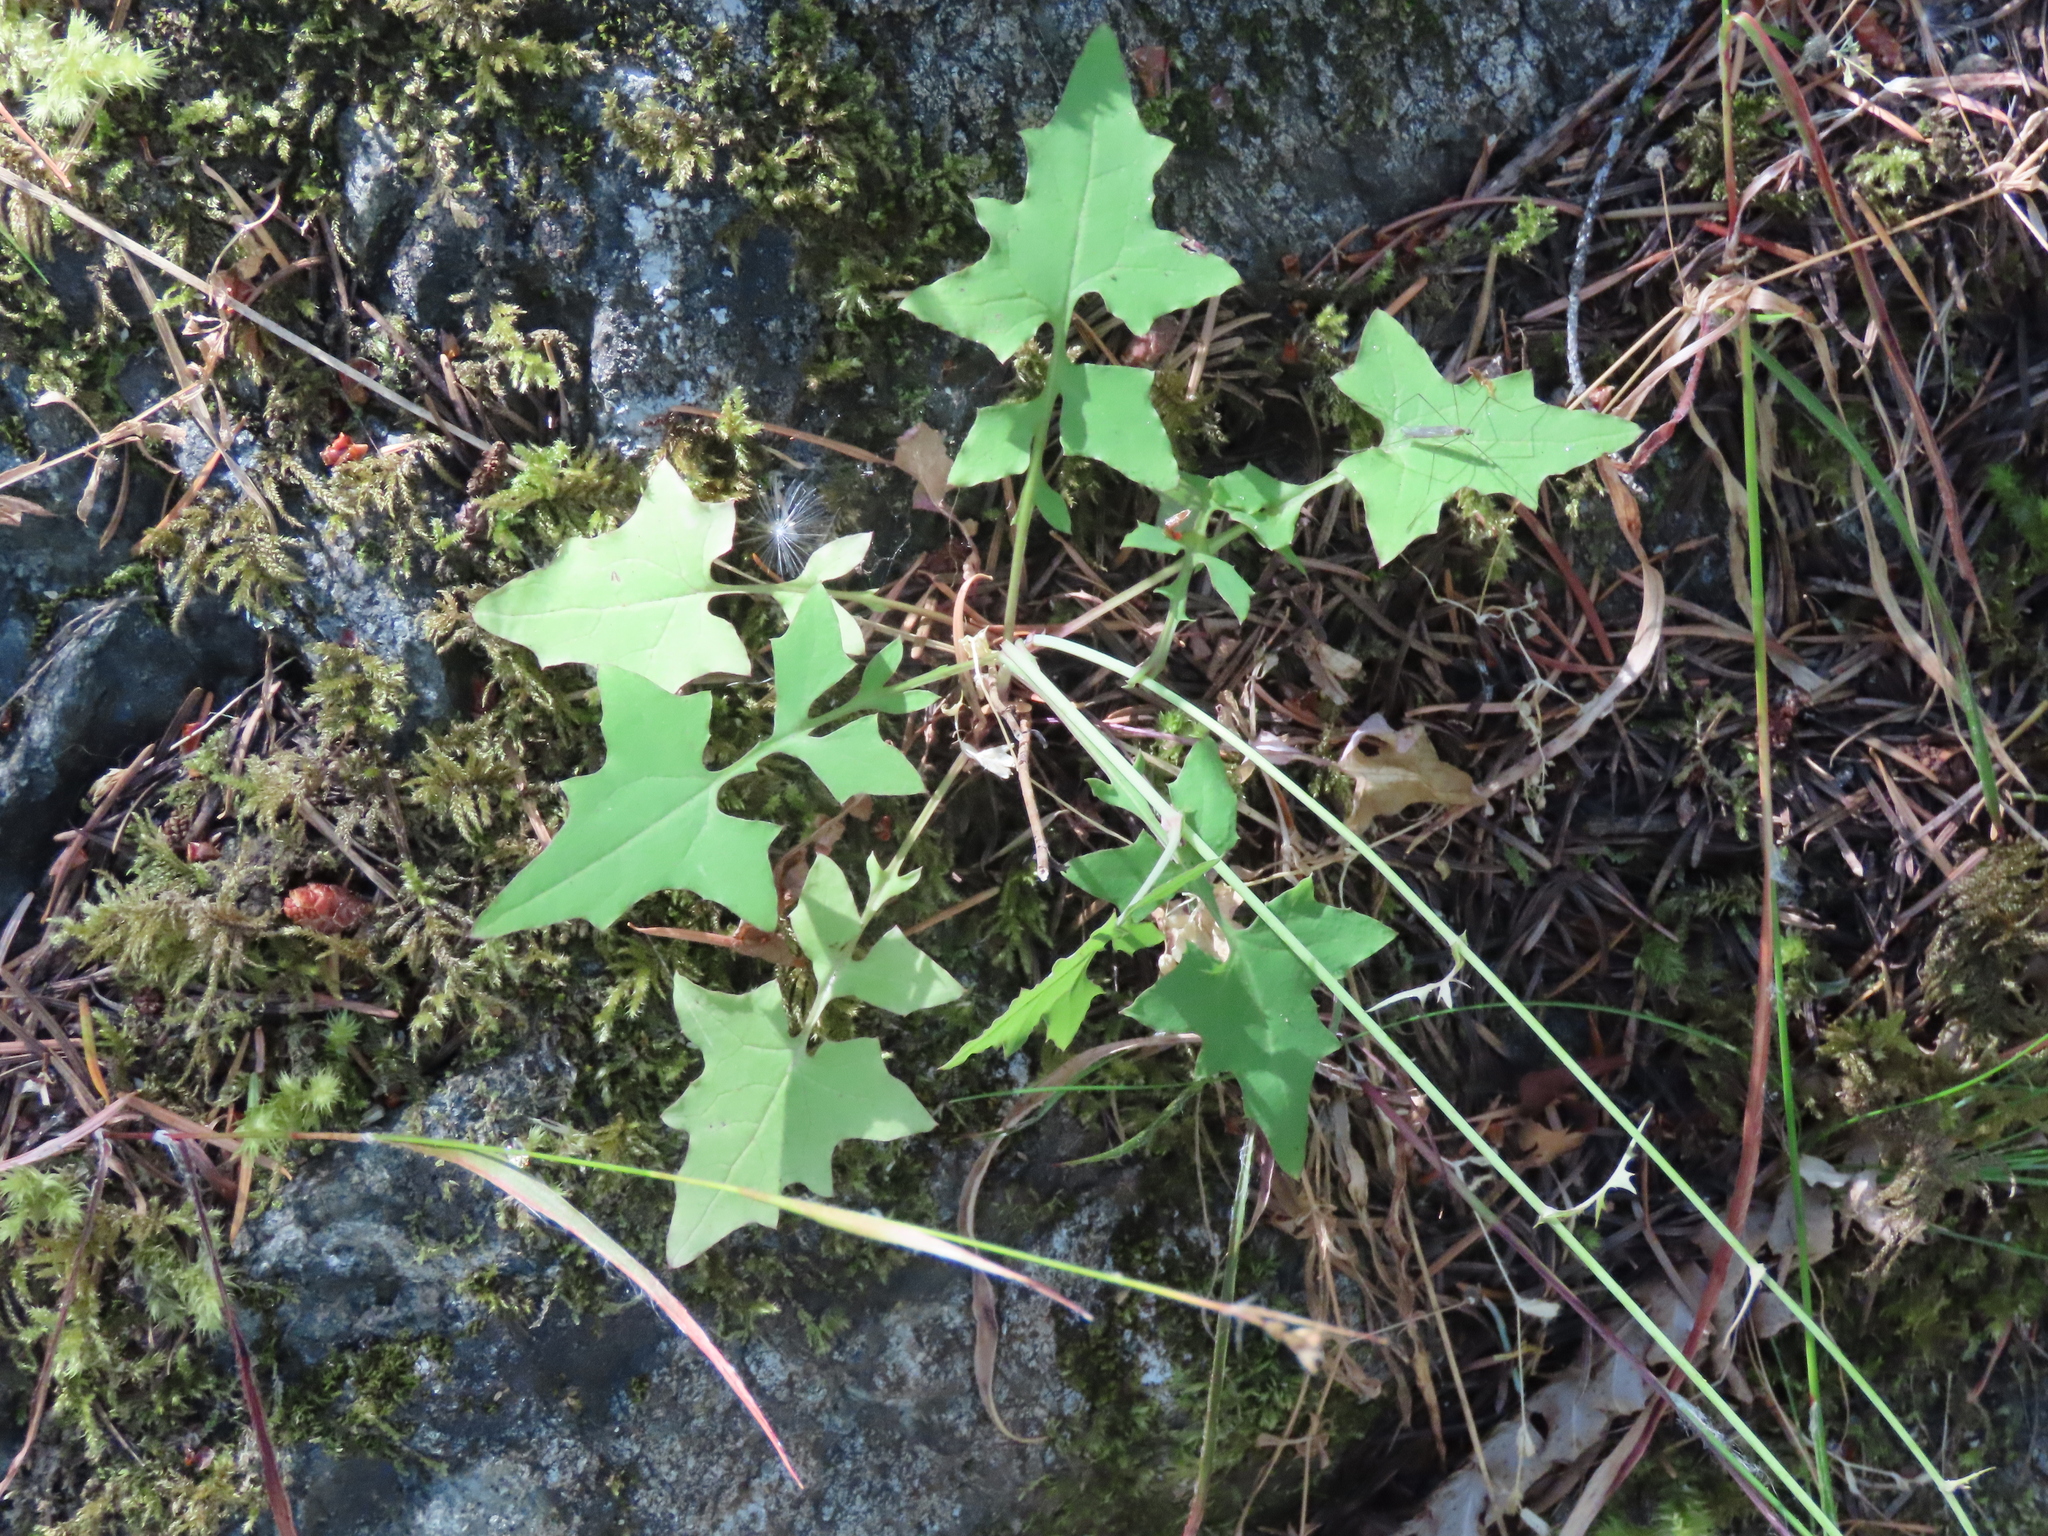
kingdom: Plantae
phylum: Tracheophyta
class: Magnoliopsida
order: Asterales
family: Asteraceae
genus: Mycelis
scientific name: Mycelis muralis
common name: Wall lettuce
